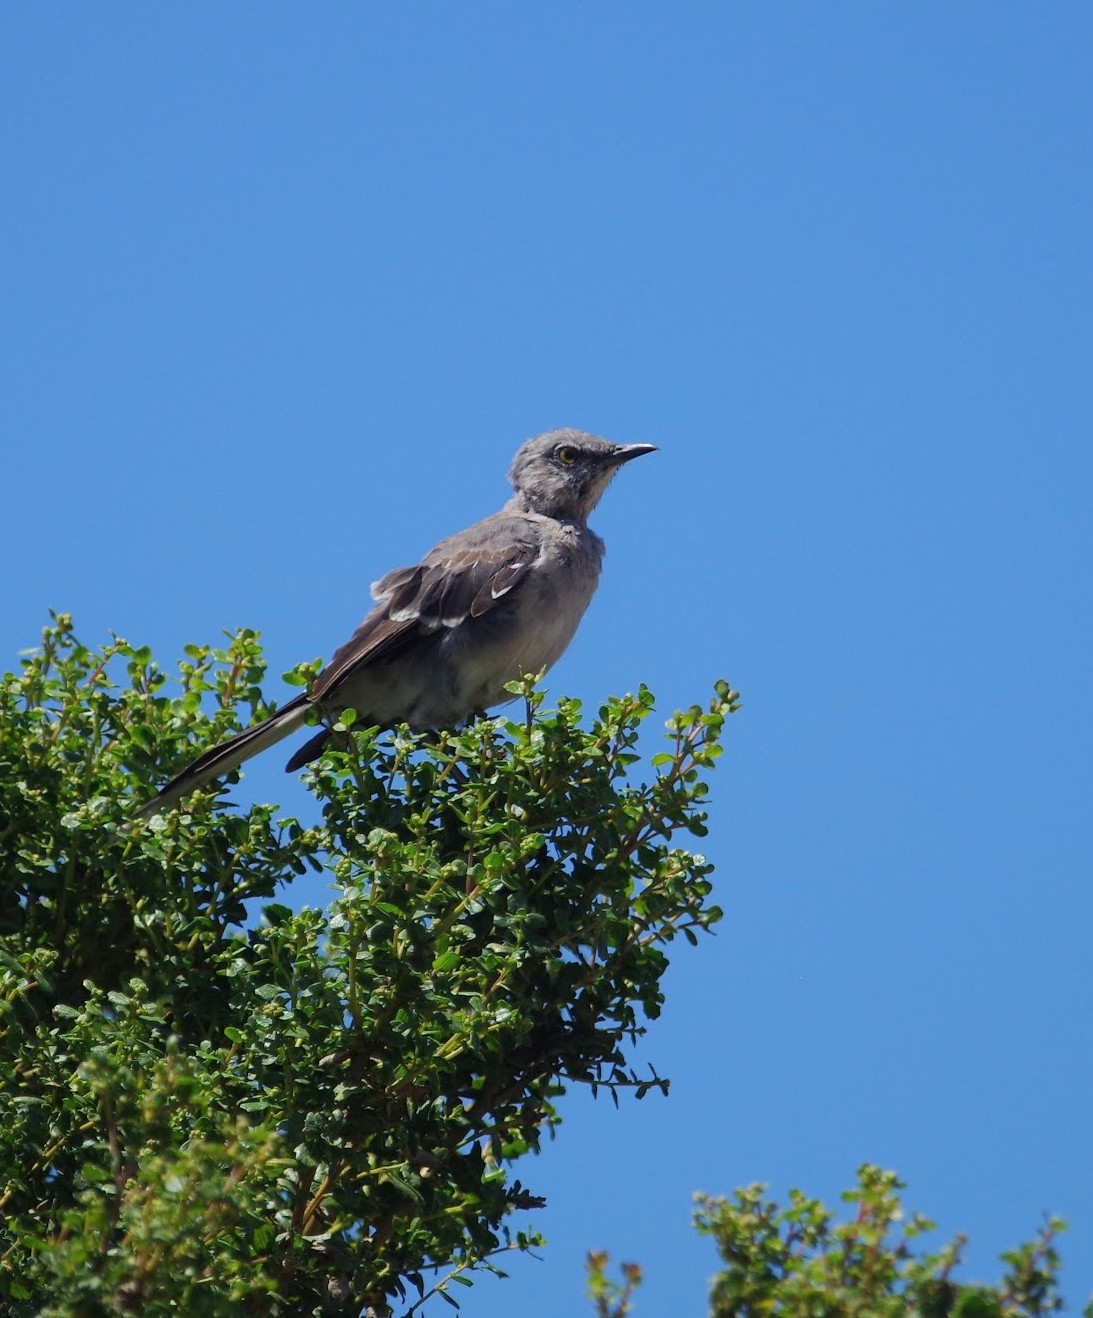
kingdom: Animalia
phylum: Chordata
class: Aves
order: Passeriformes
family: Mimidae
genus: Mimus
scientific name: Mimus polyglottos
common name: Northern mockingbird
